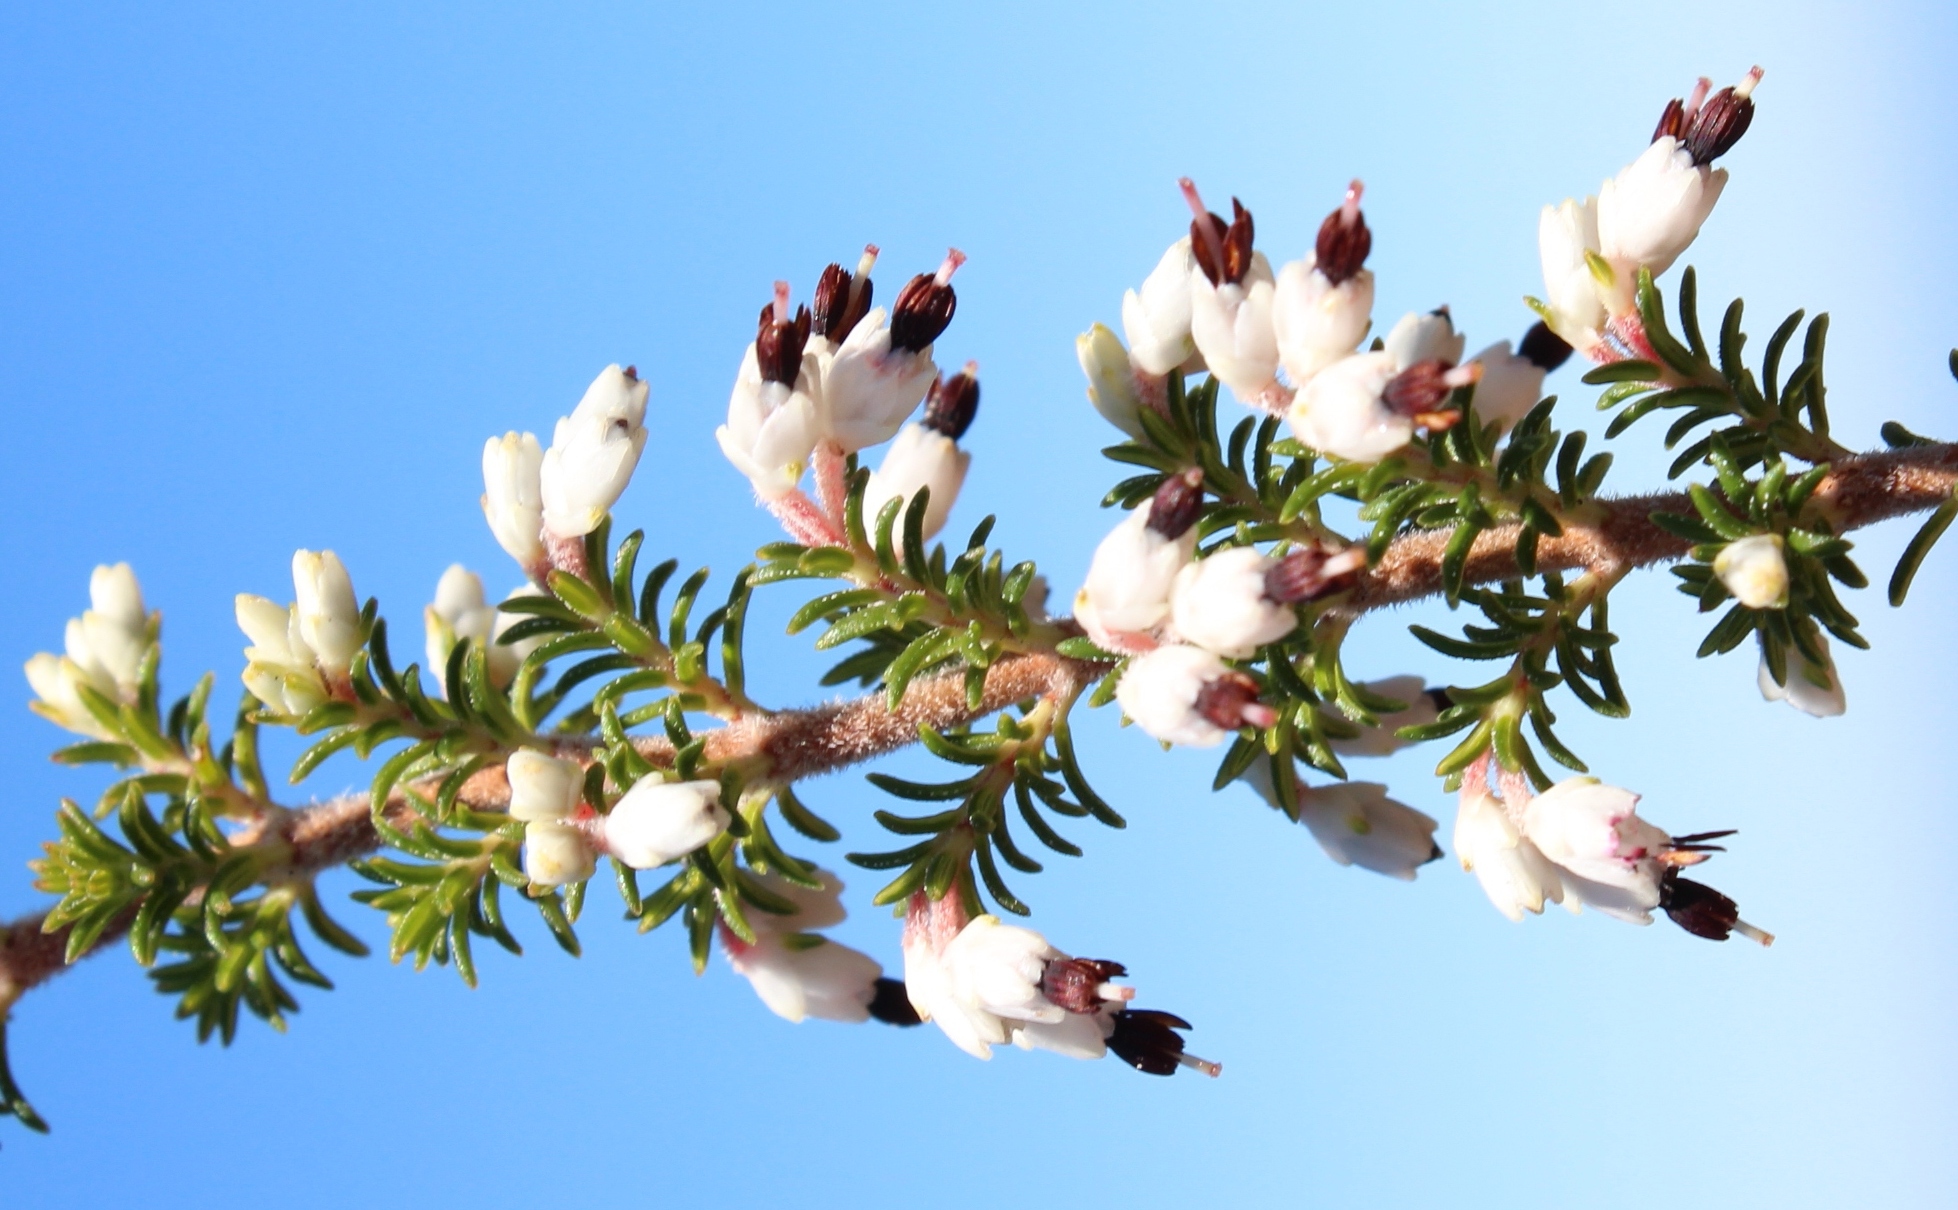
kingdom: Plantae
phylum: Tracheophyta
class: Magnoliopsida
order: Ericales
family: Ericaceae
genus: Erica
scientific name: Erica imbricata
